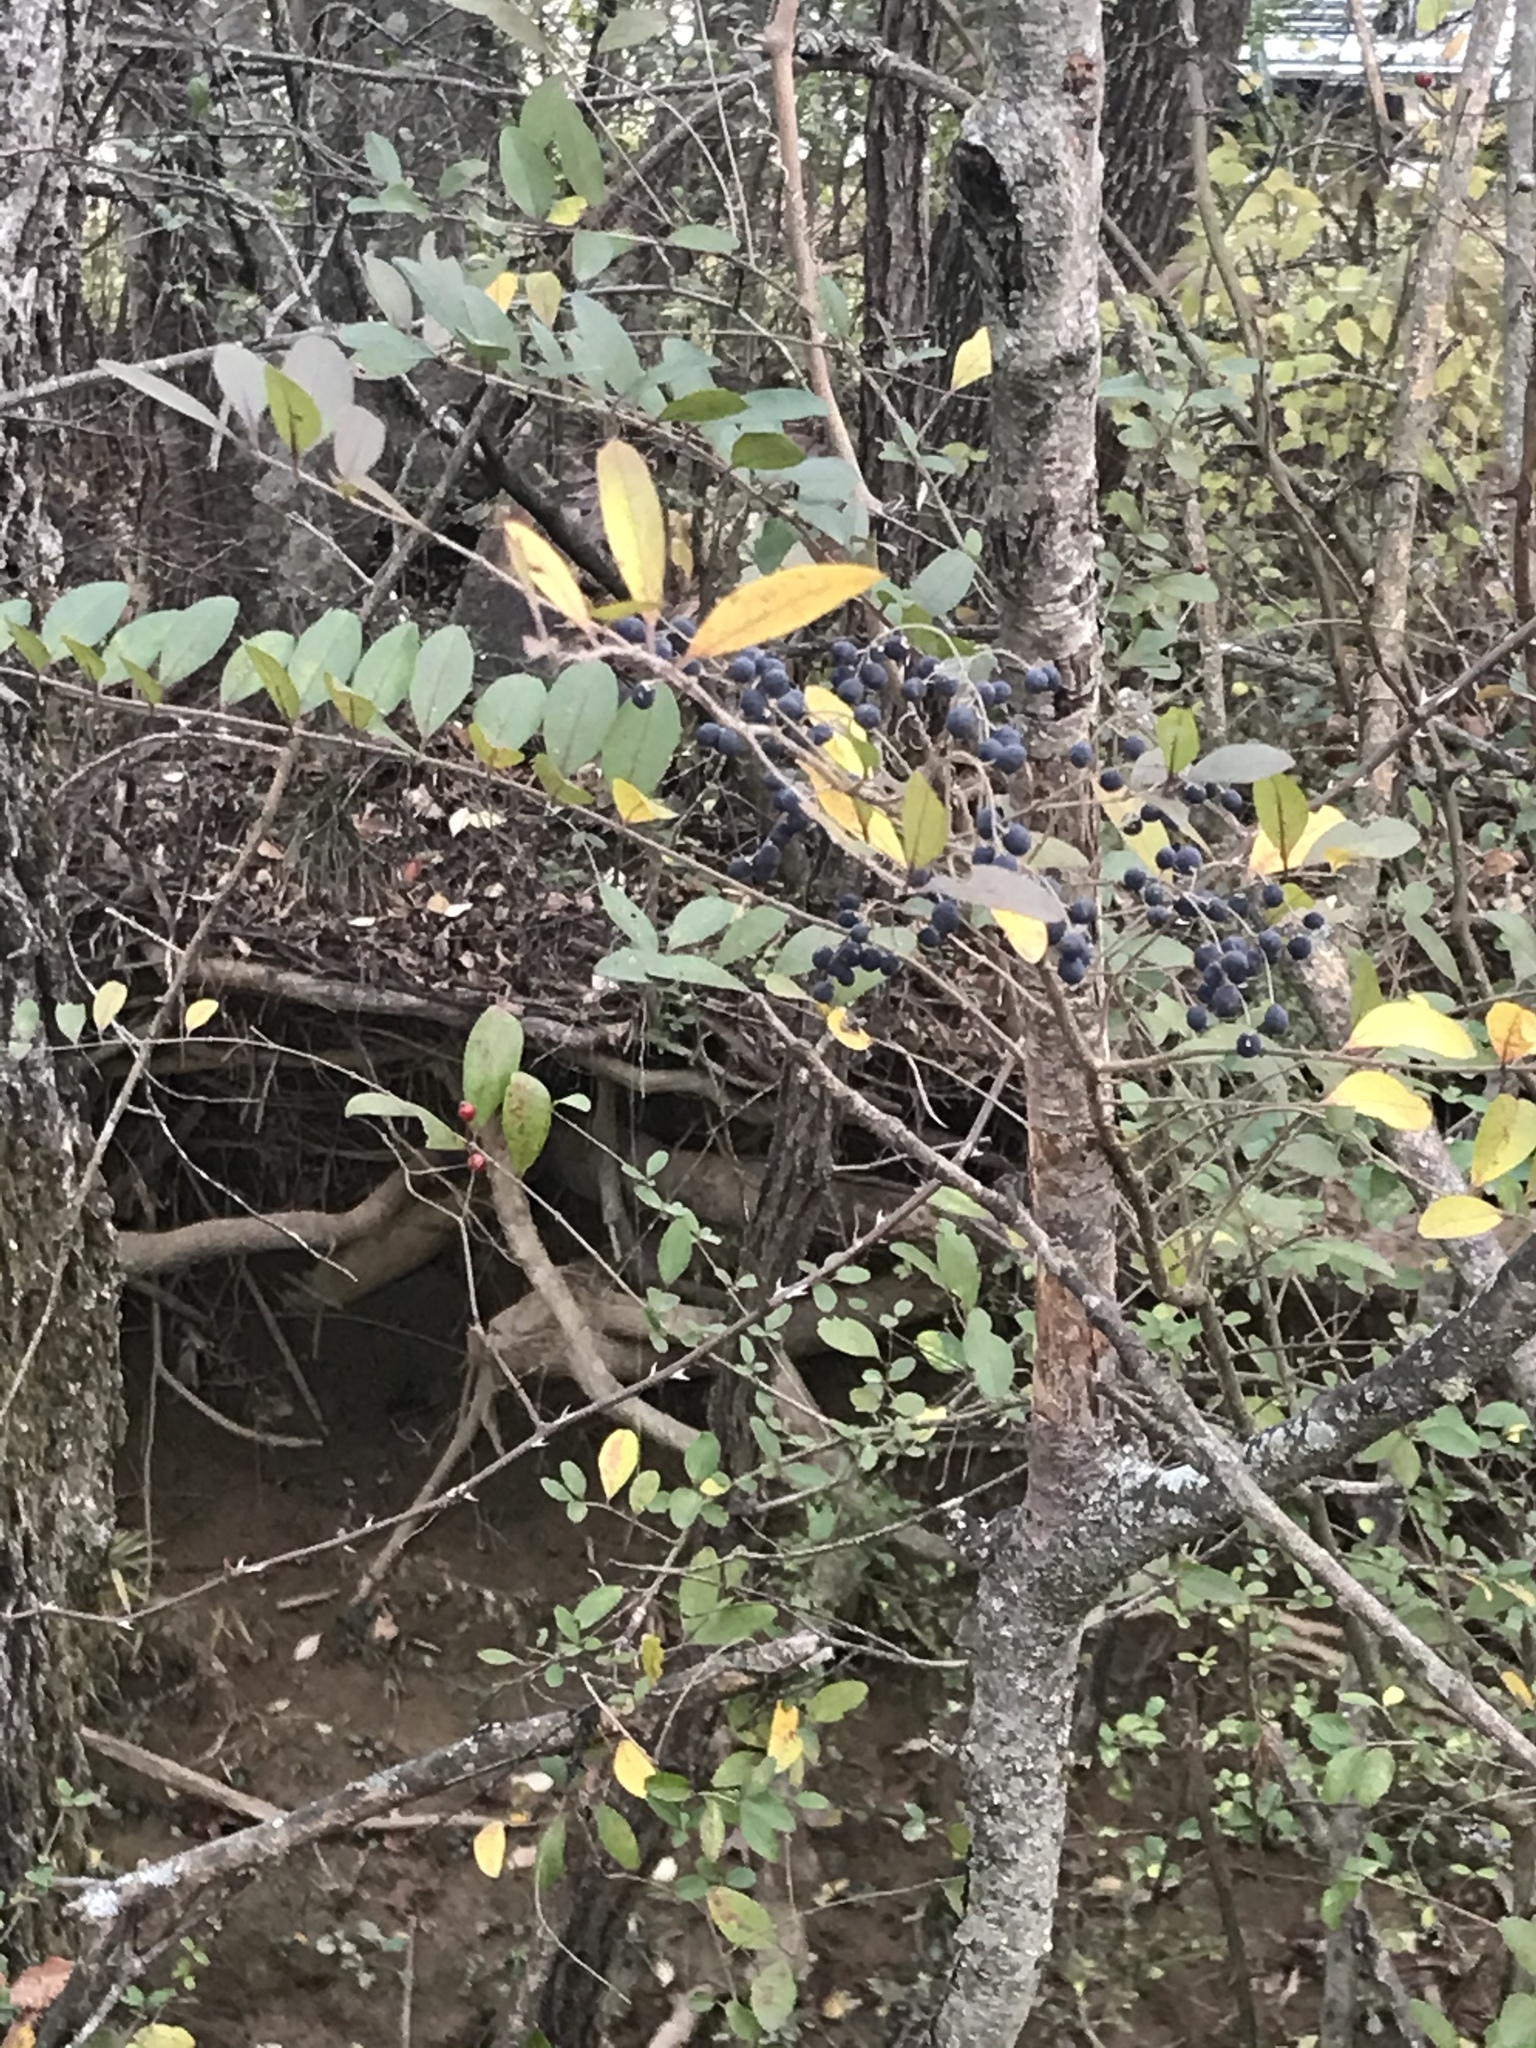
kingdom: Plantae
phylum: Tracheophyta
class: Magnoliopsida
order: Lamiales
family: Oleaceae
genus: Ligustrum
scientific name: Ligustrum sinense
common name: Chinese privet
